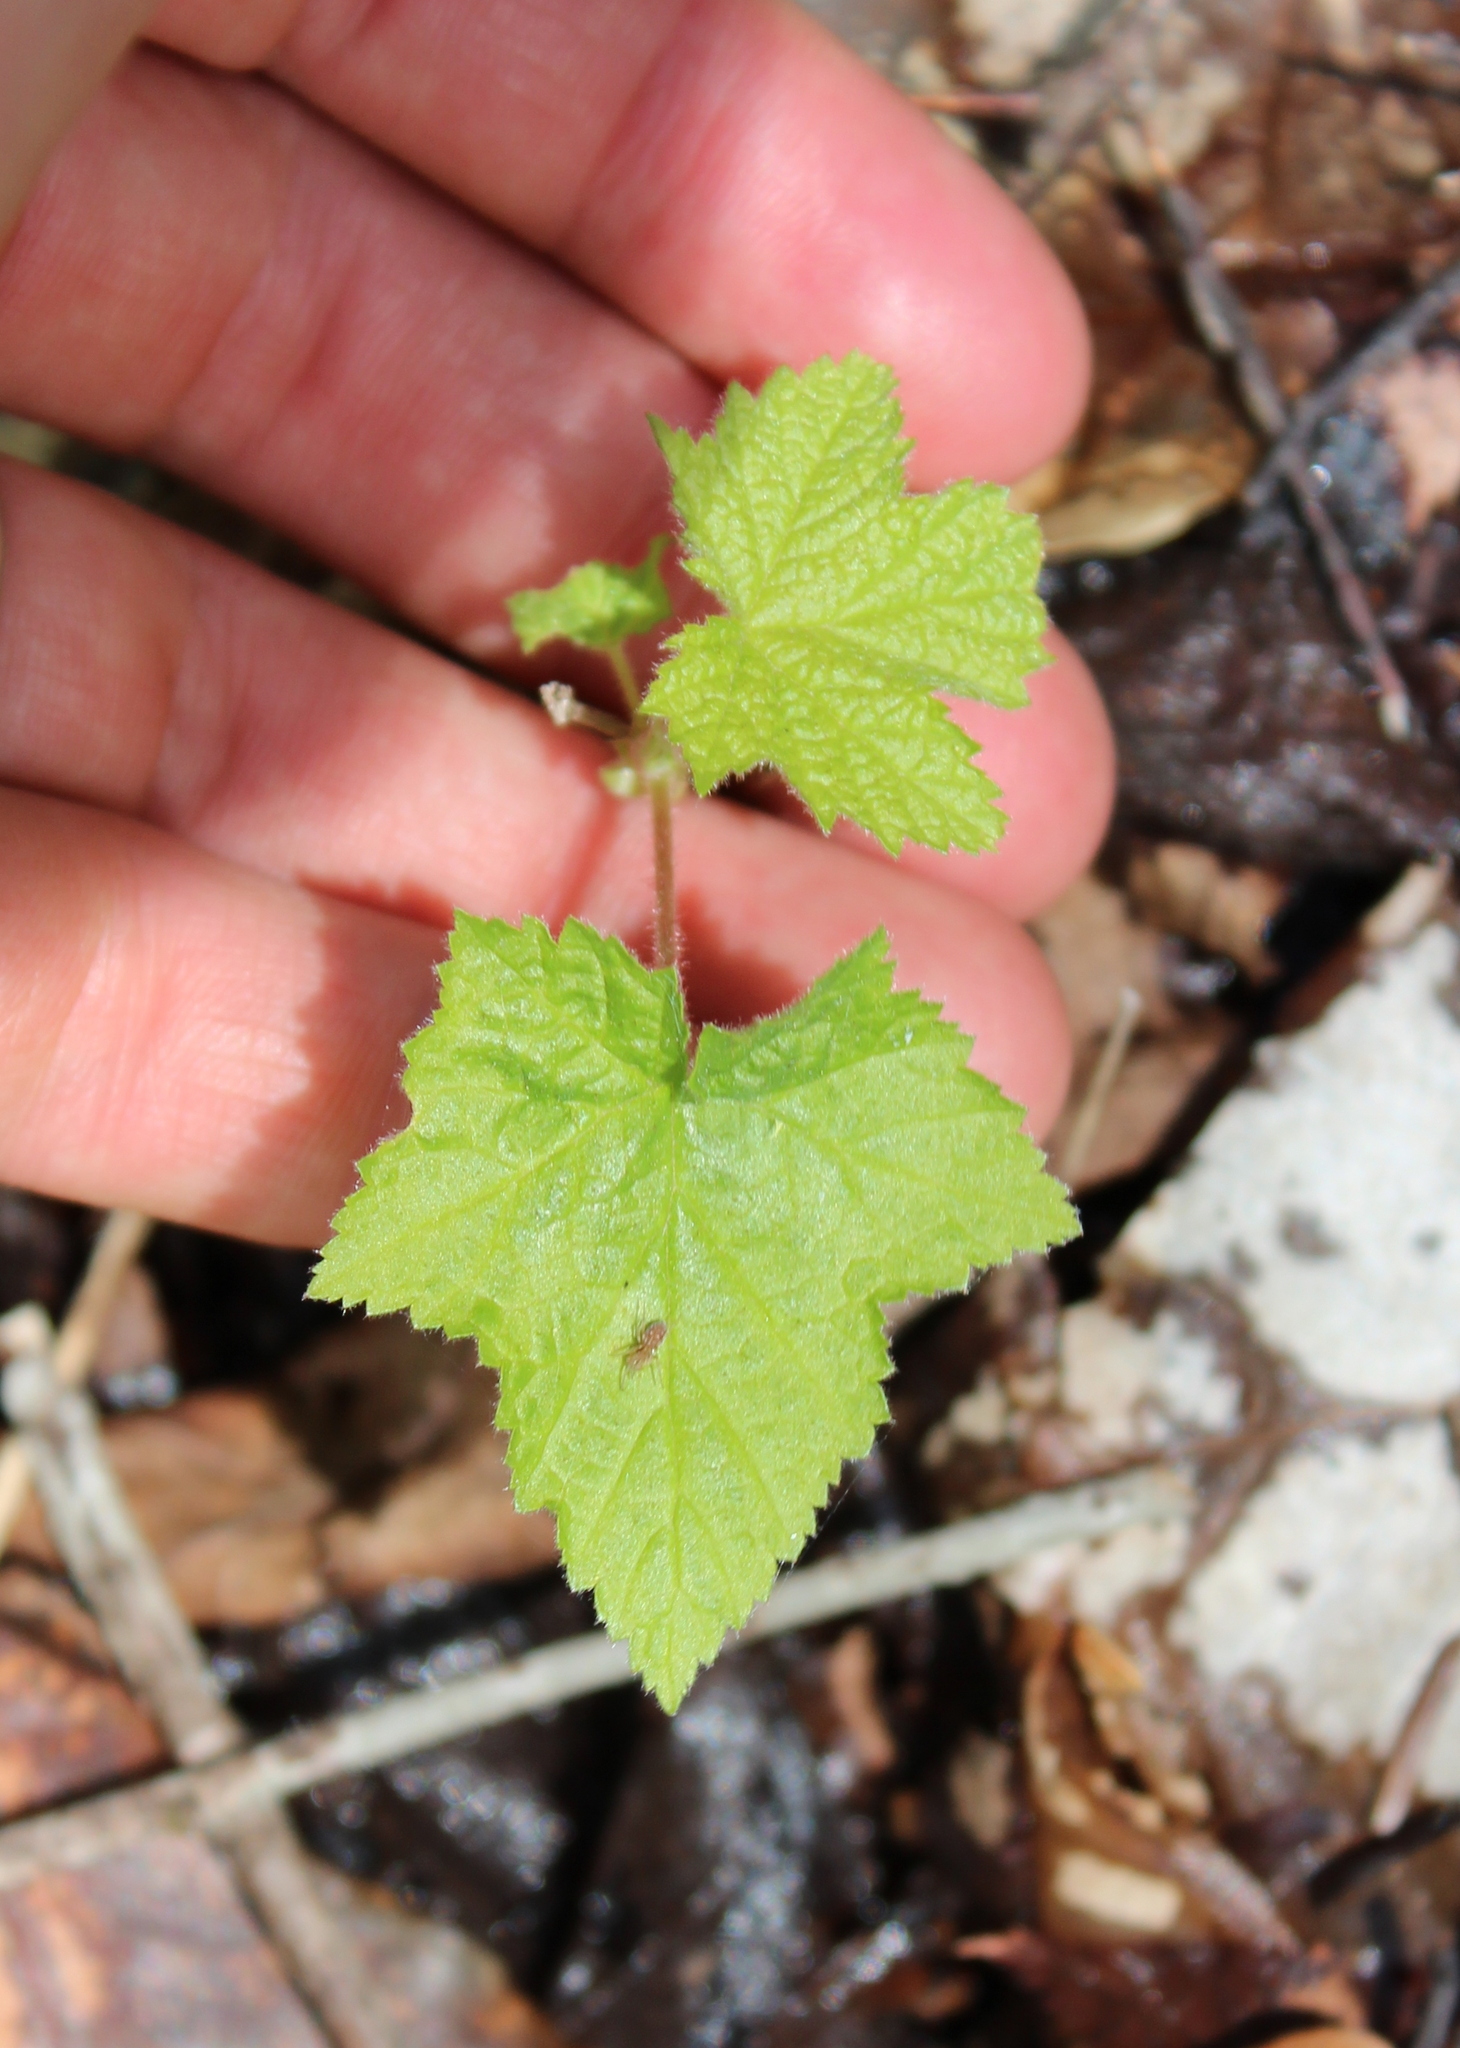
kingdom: Plantae
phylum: Tracheophyta
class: Magnoliopsida
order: Rosales
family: Rosaceae
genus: Rubus
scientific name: Rubus odoratus
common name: Purple-flowered raspberry
